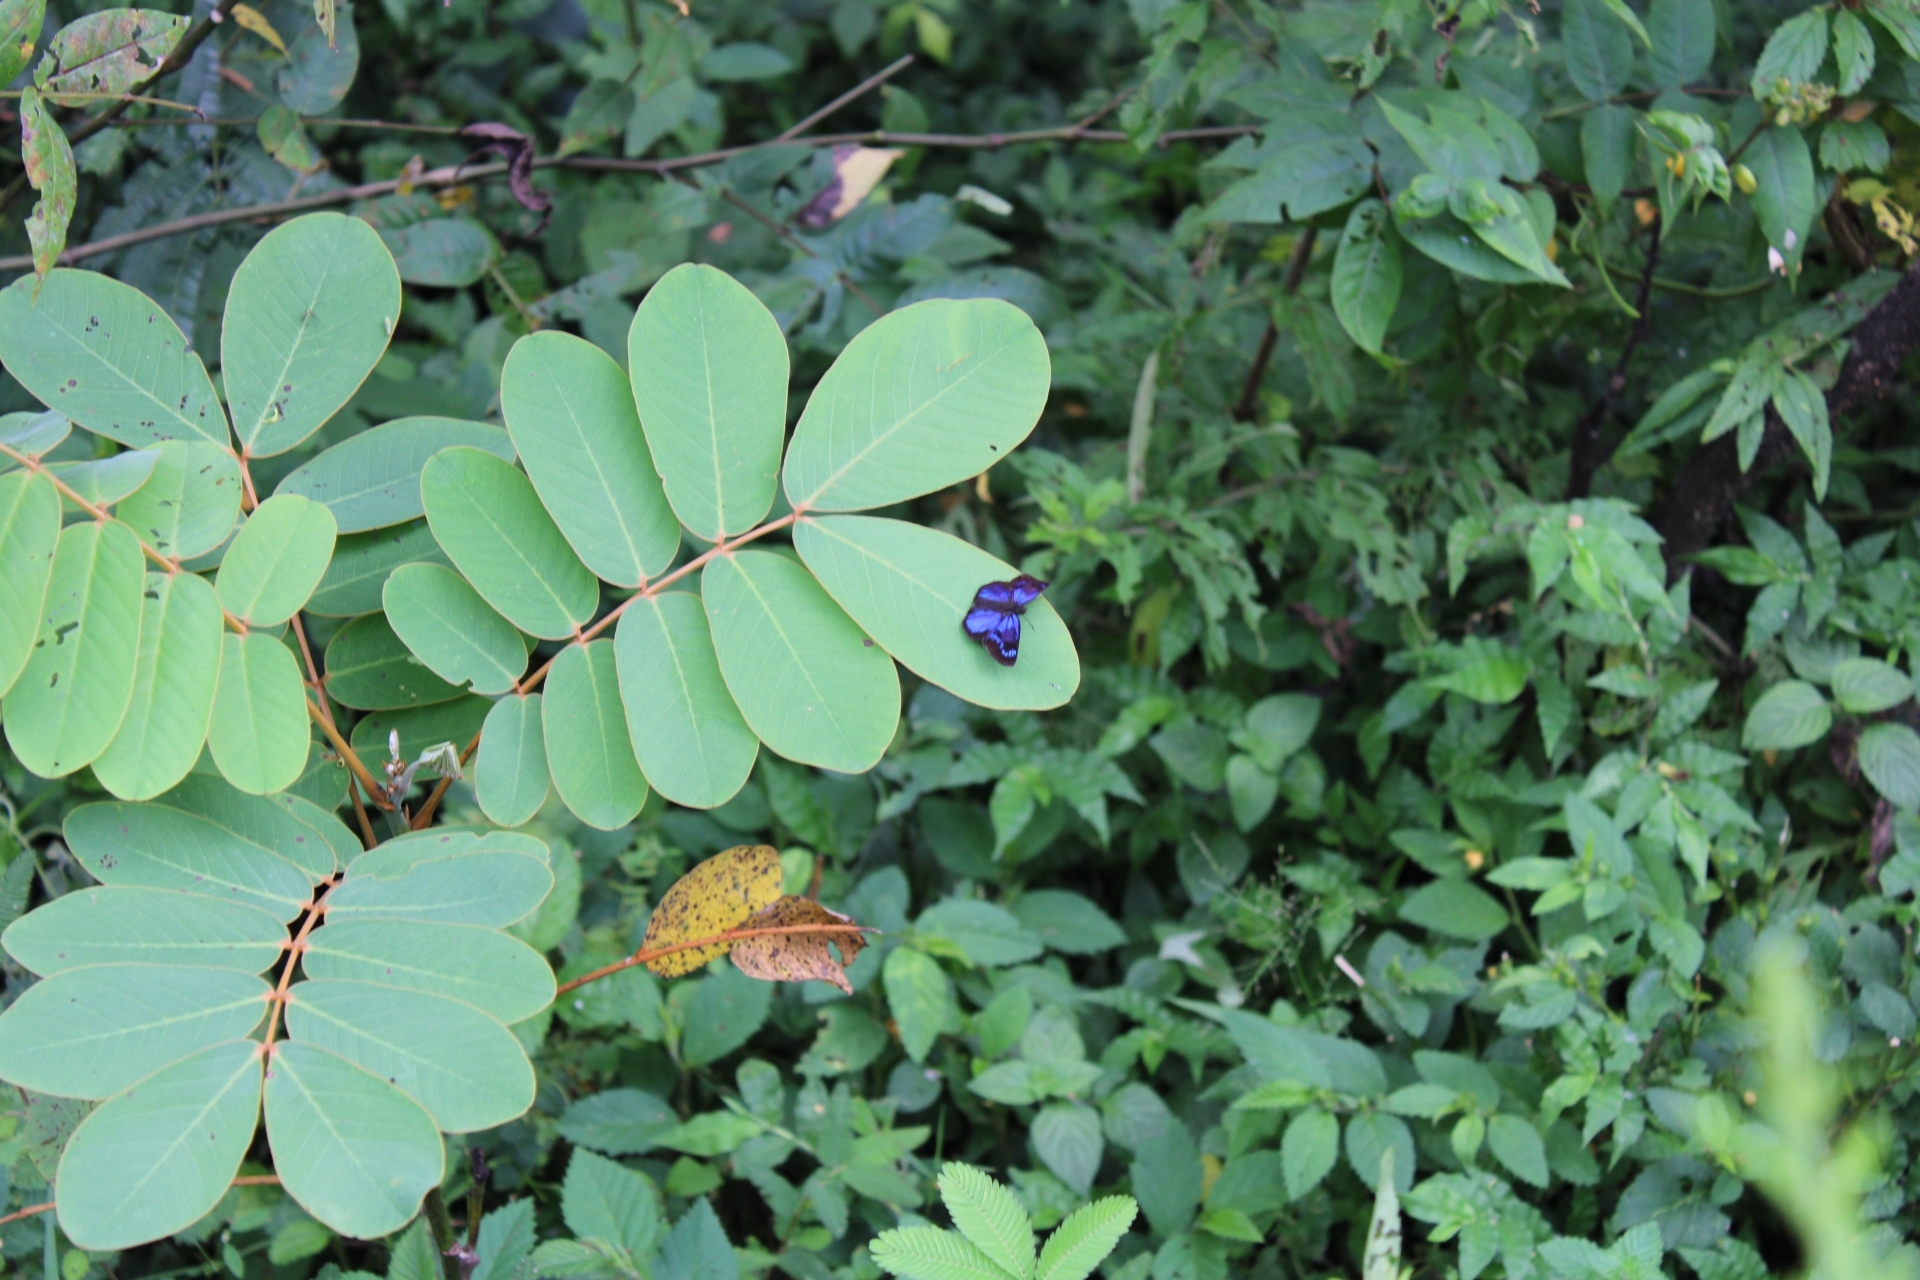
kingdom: Animalia
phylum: Arthropoda
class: Insecta
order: Lepidoptera
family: Hesperiidae
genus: Paches
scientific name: Paches loxus
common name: Glorious blue-skipper
